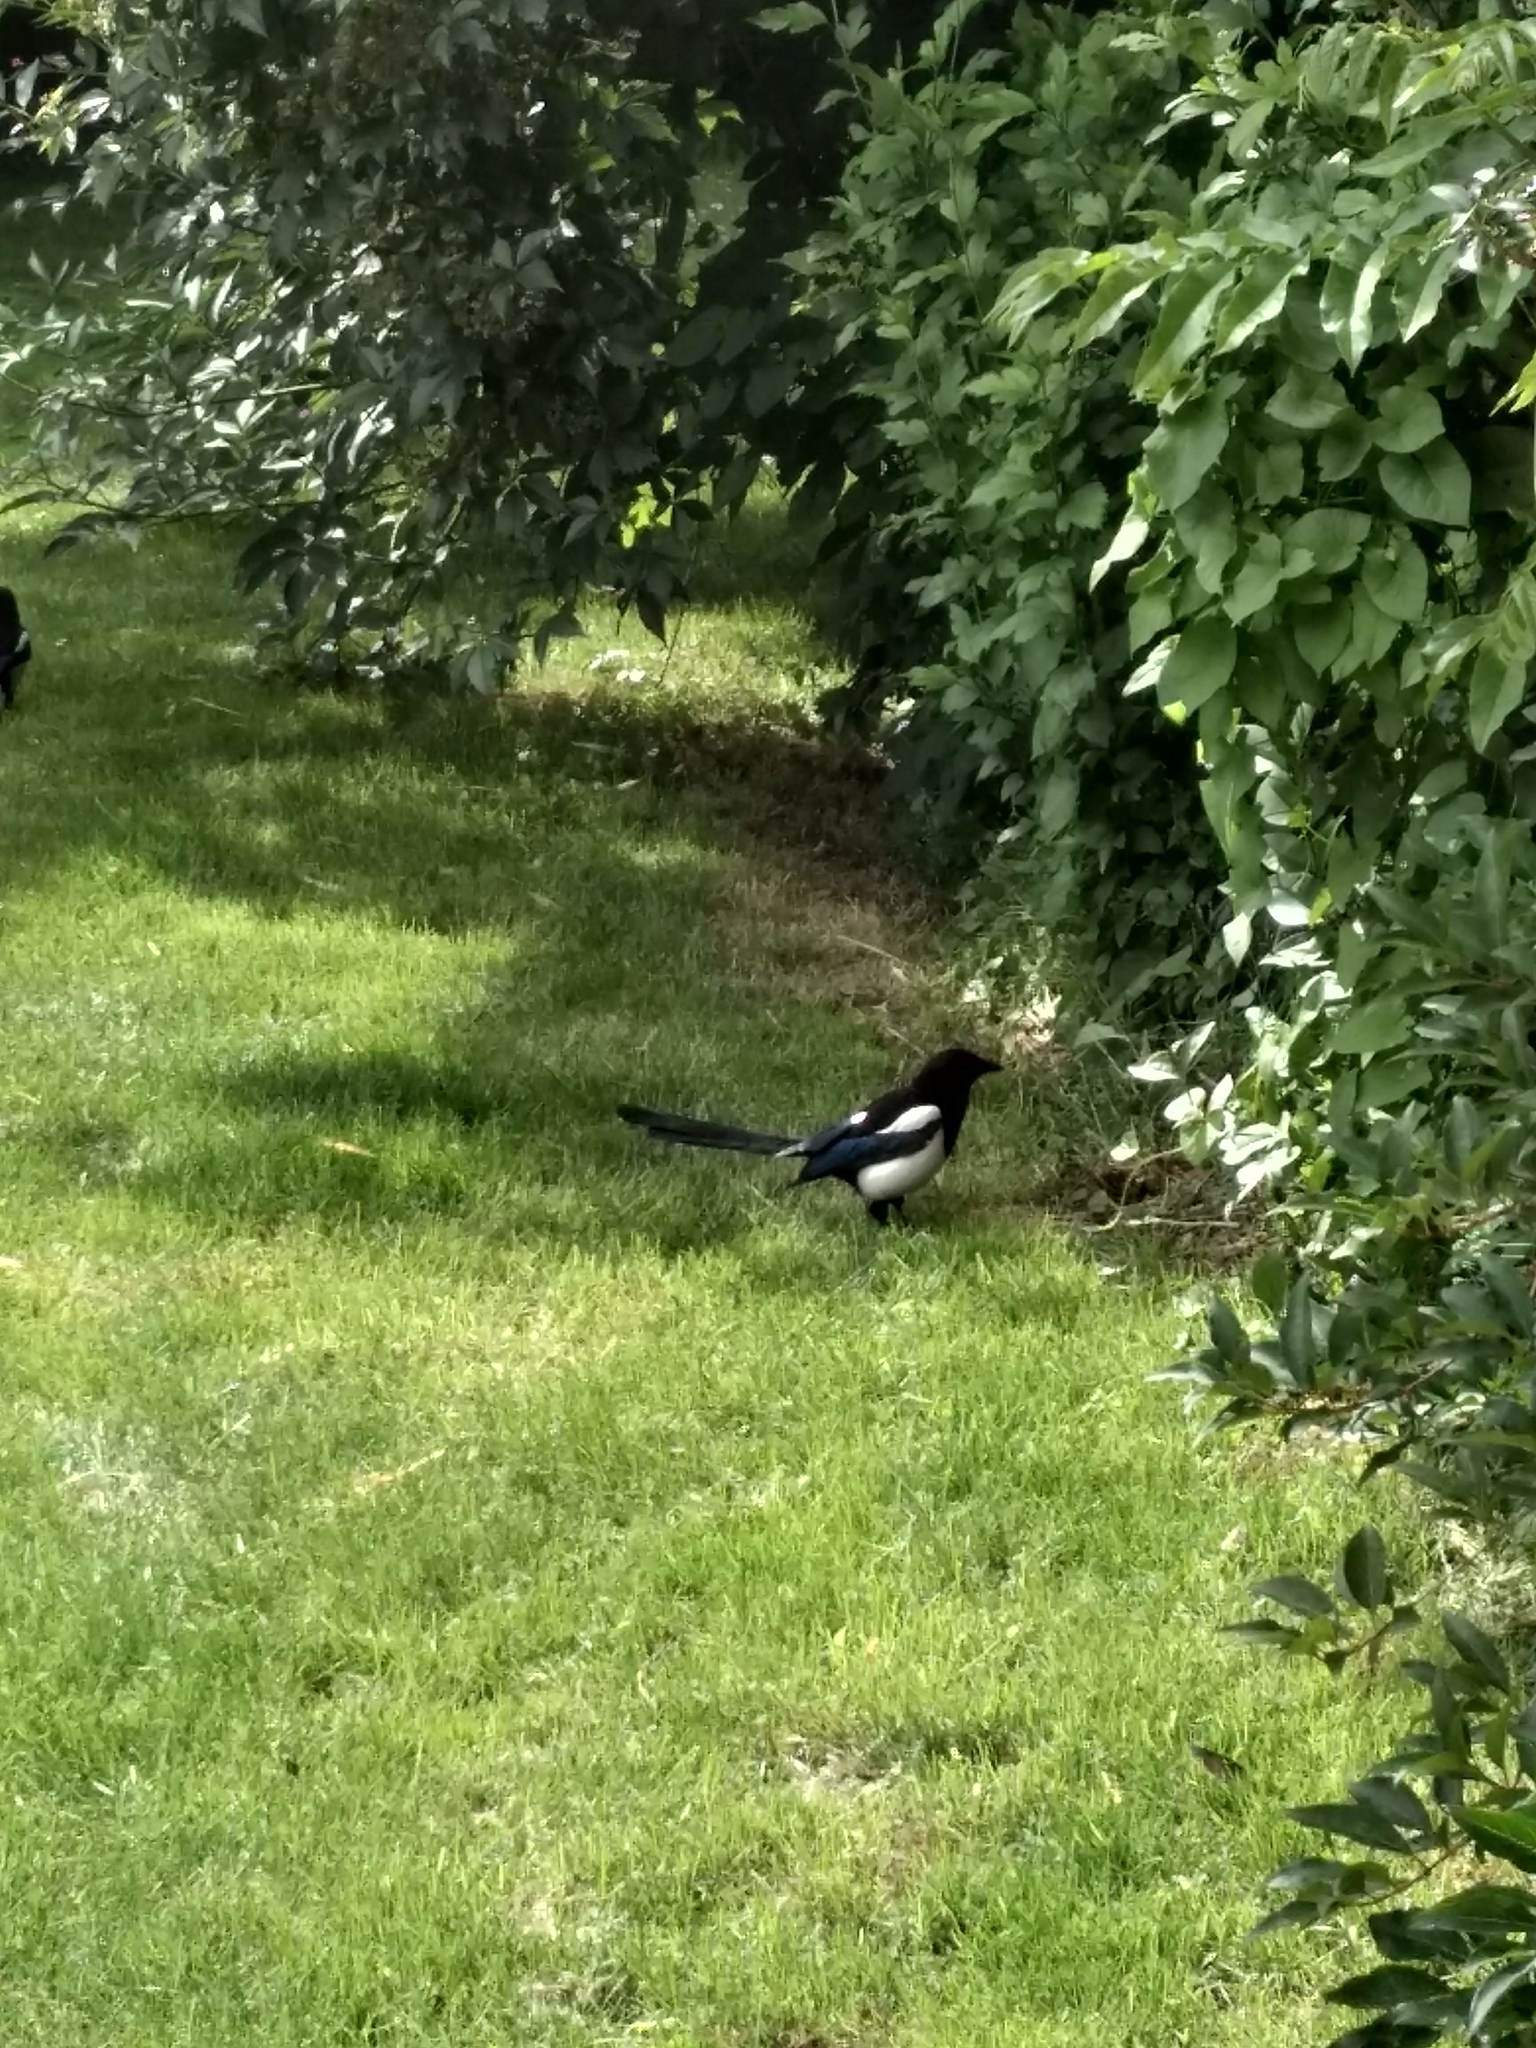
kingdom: Animalia
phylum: Chordata
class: Aves
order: Passeriformes
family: Corvidae
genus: Pica
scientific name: Pica pica
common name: Eurasian magpie
